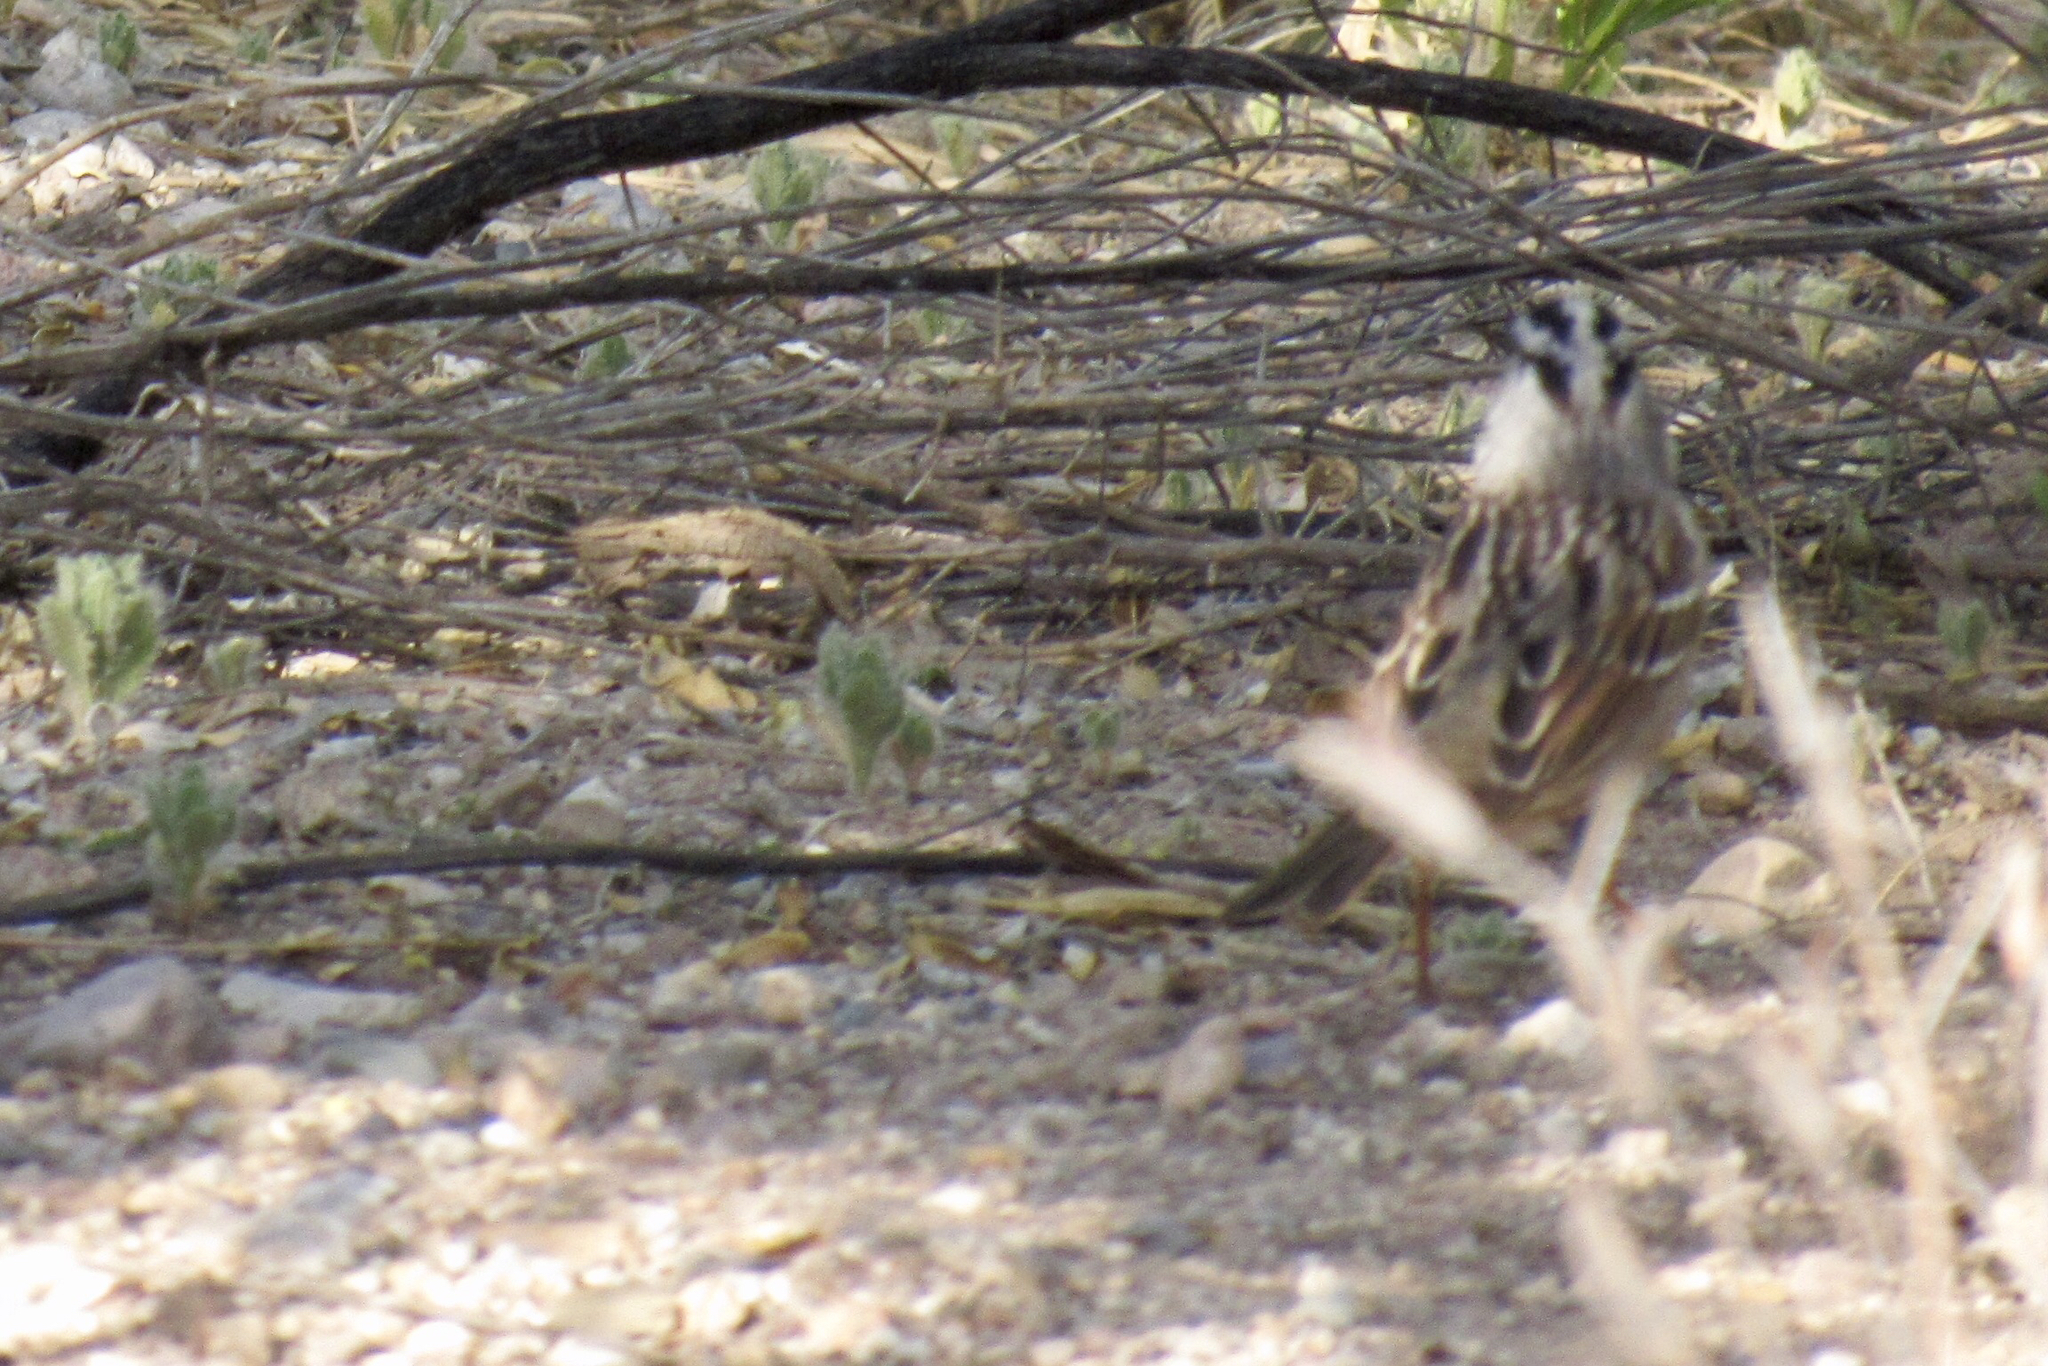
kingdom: Animalia
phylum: Chordata
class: Aves
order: Passeriformes
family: Passerellidae
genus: Zonotrichia
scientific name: Zonotrichia leucophrys
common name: White-crowned sparrow
